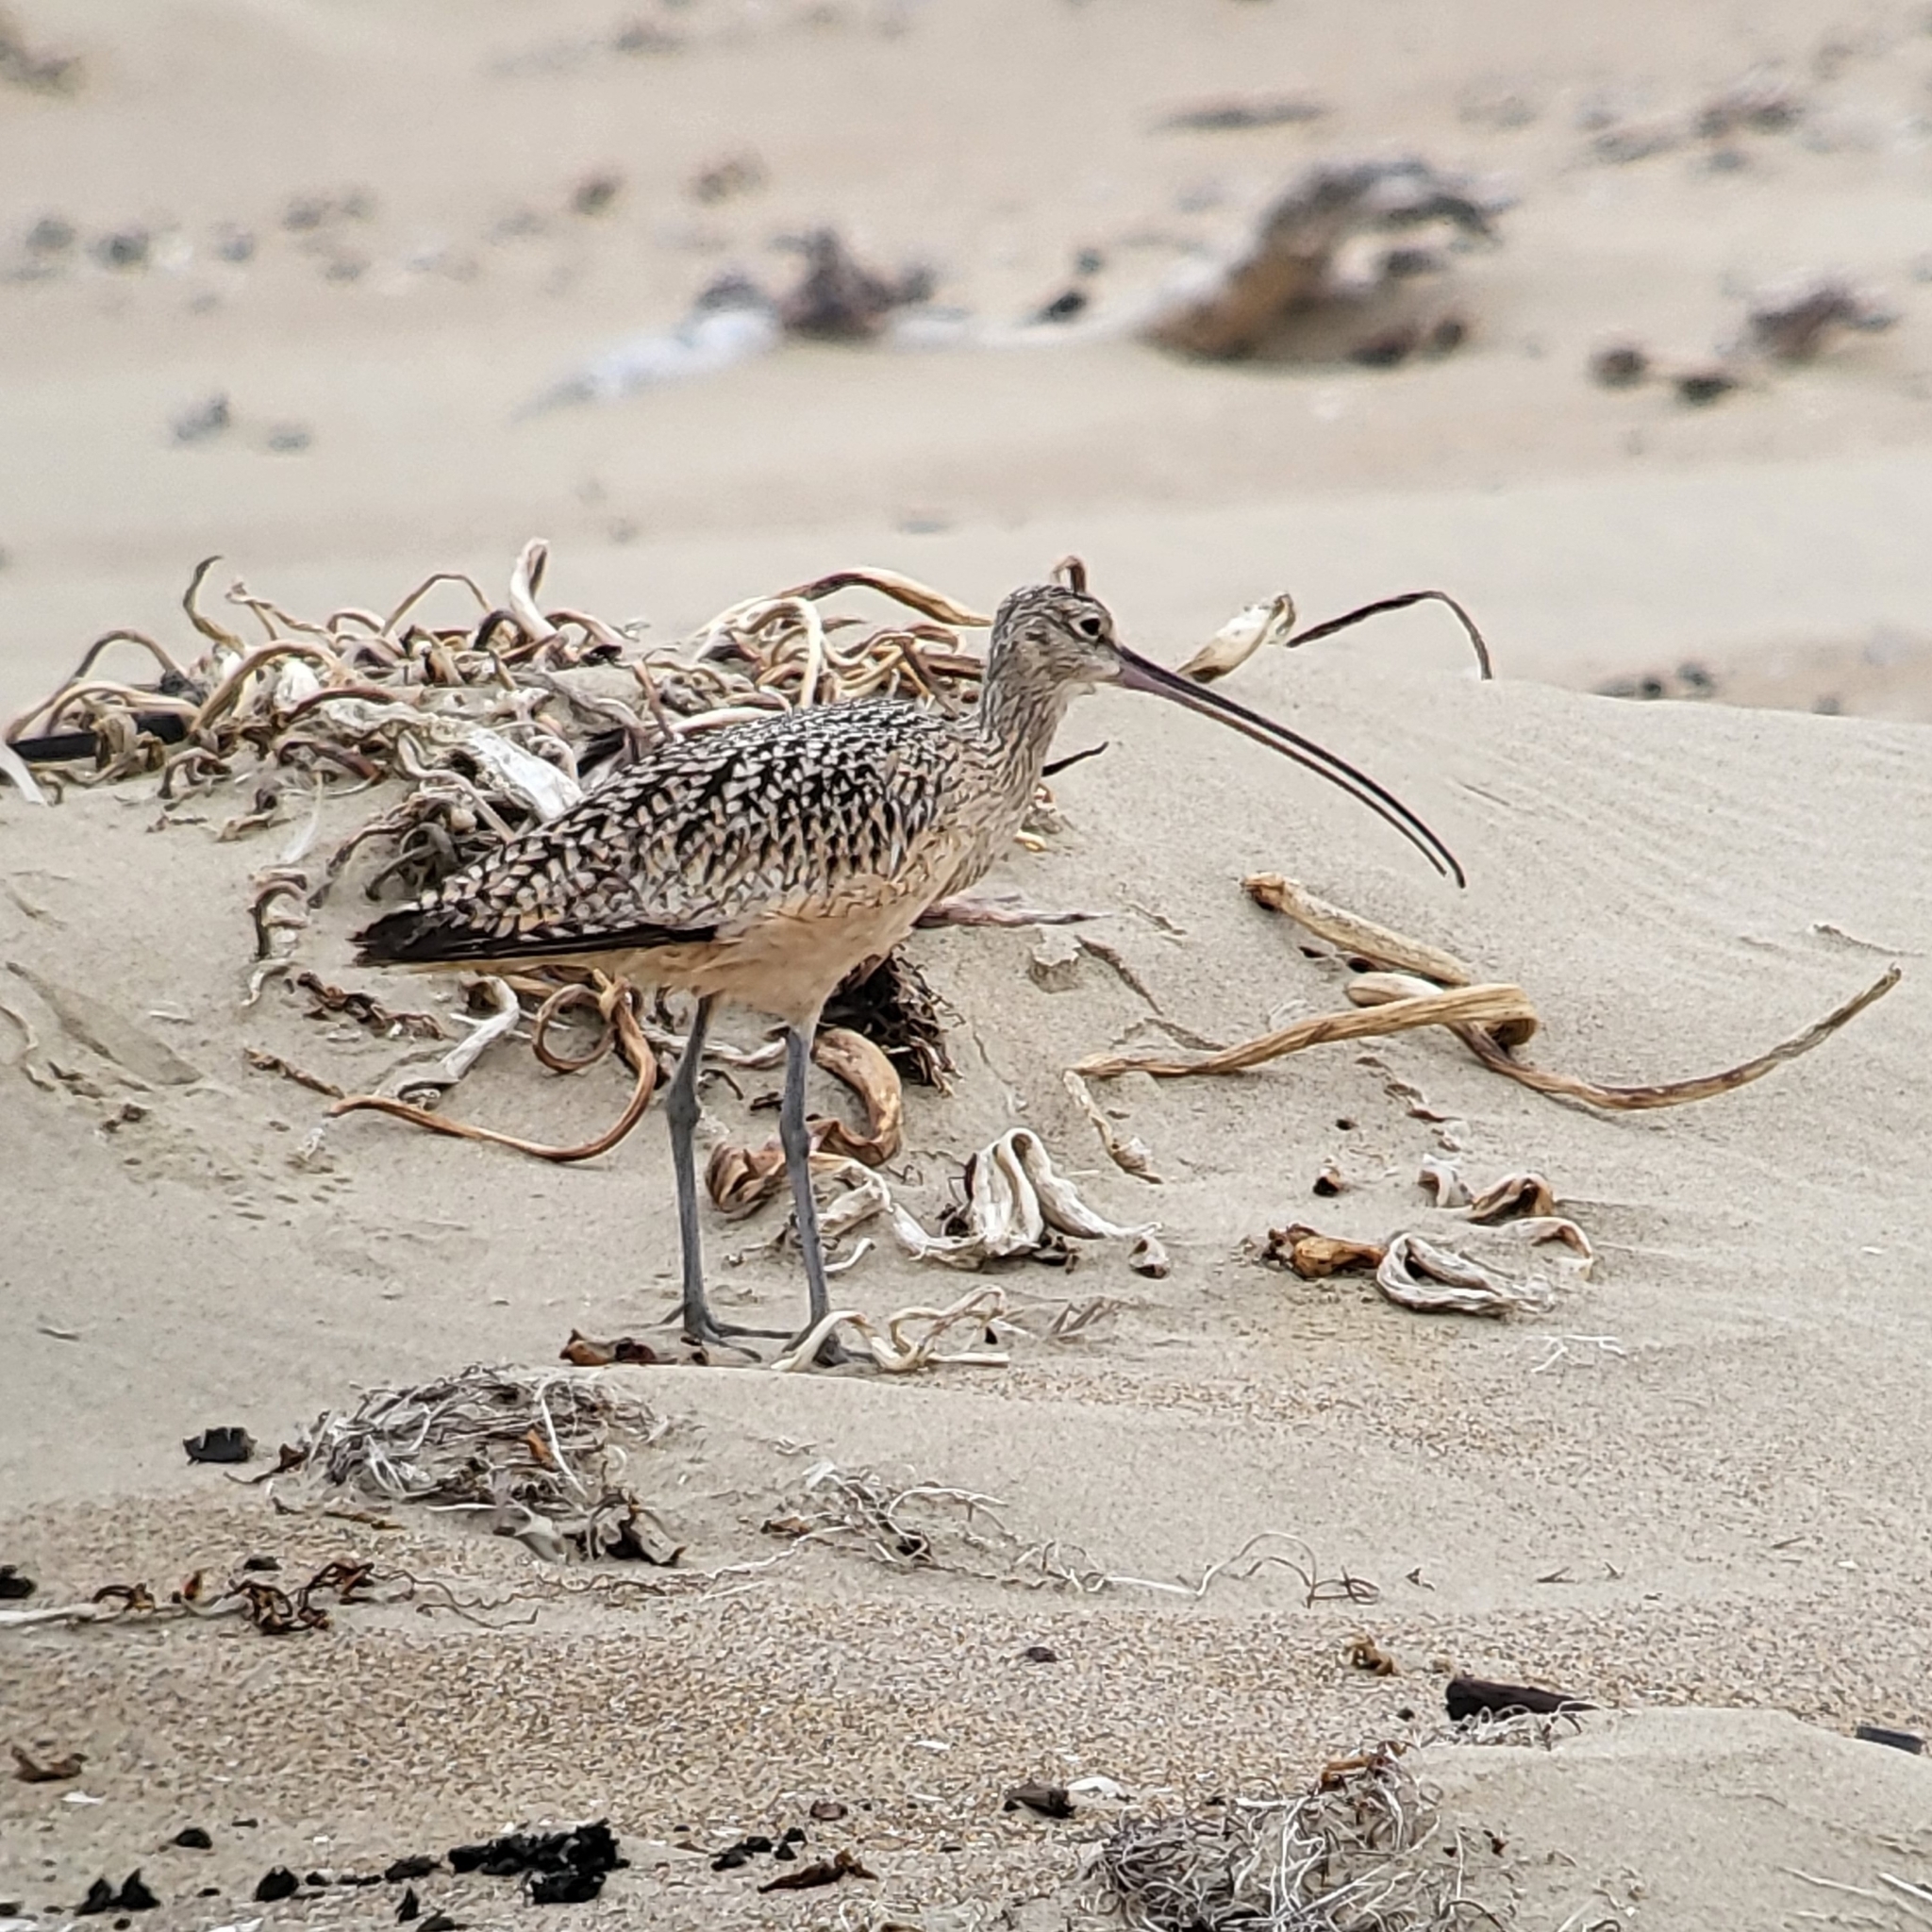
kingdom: Animalia
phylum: Chordata
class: Aves
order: Charadriiformes
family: Scolopacidae
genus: Numenius
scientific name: Numenius americanus
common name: Long-billed curlew
